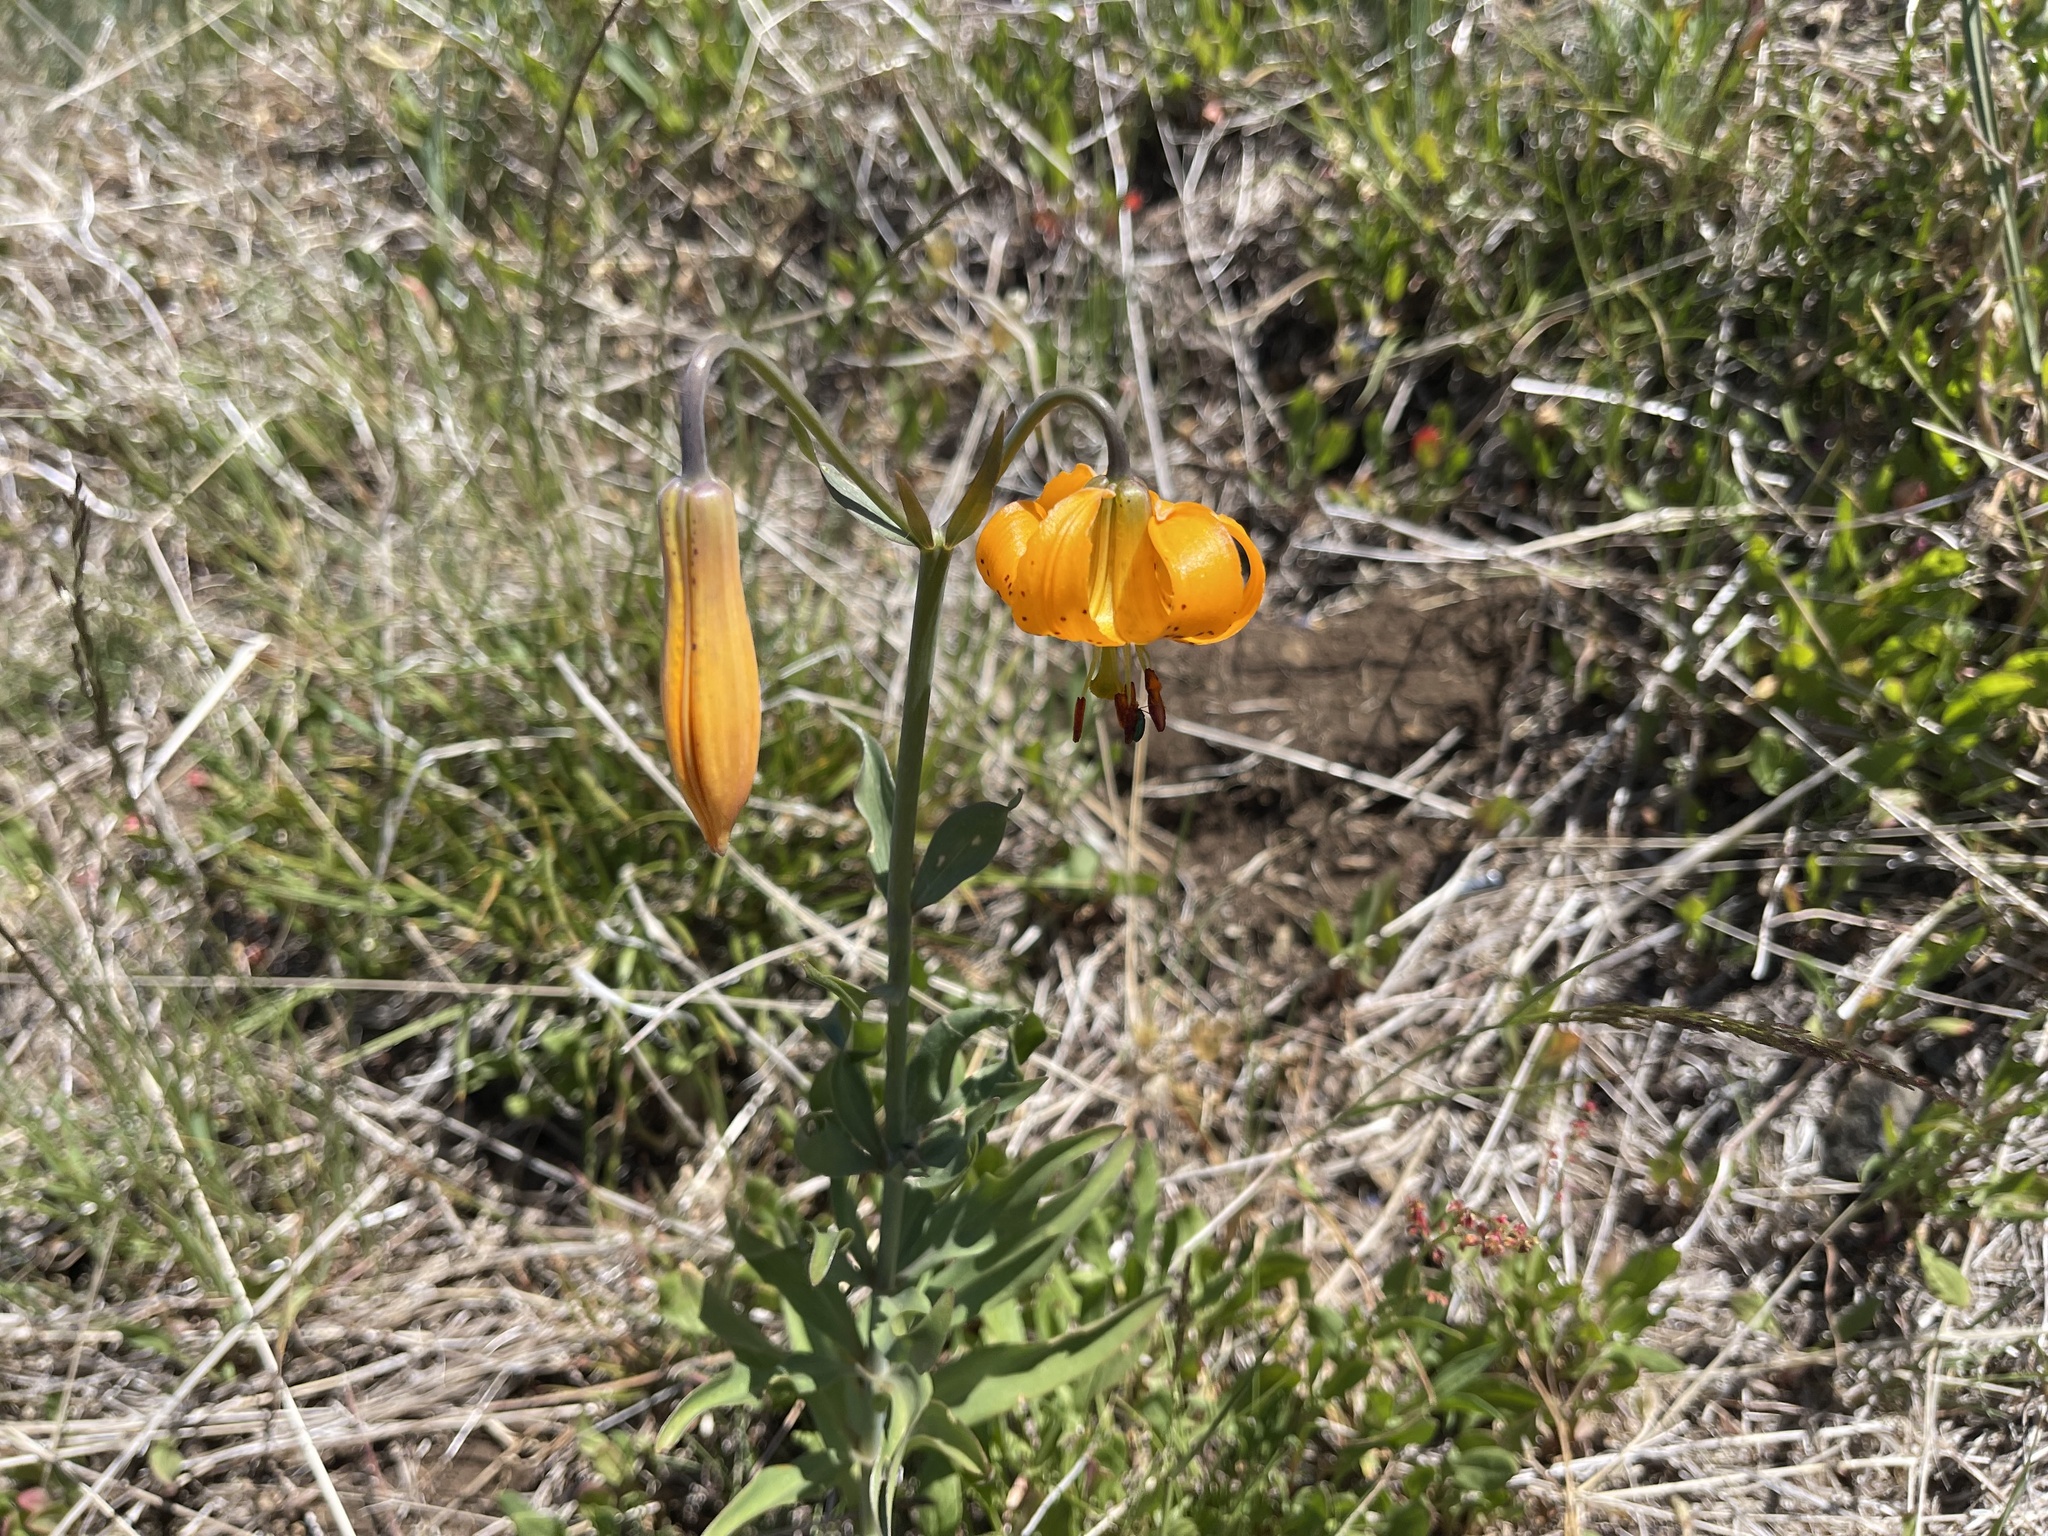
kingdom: Plantae
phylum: Tracheophyta
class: Liliopsida
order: Liliales
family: Liliaceae
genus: Lilium
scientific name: Lilium columbianum
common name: Columbia lily
